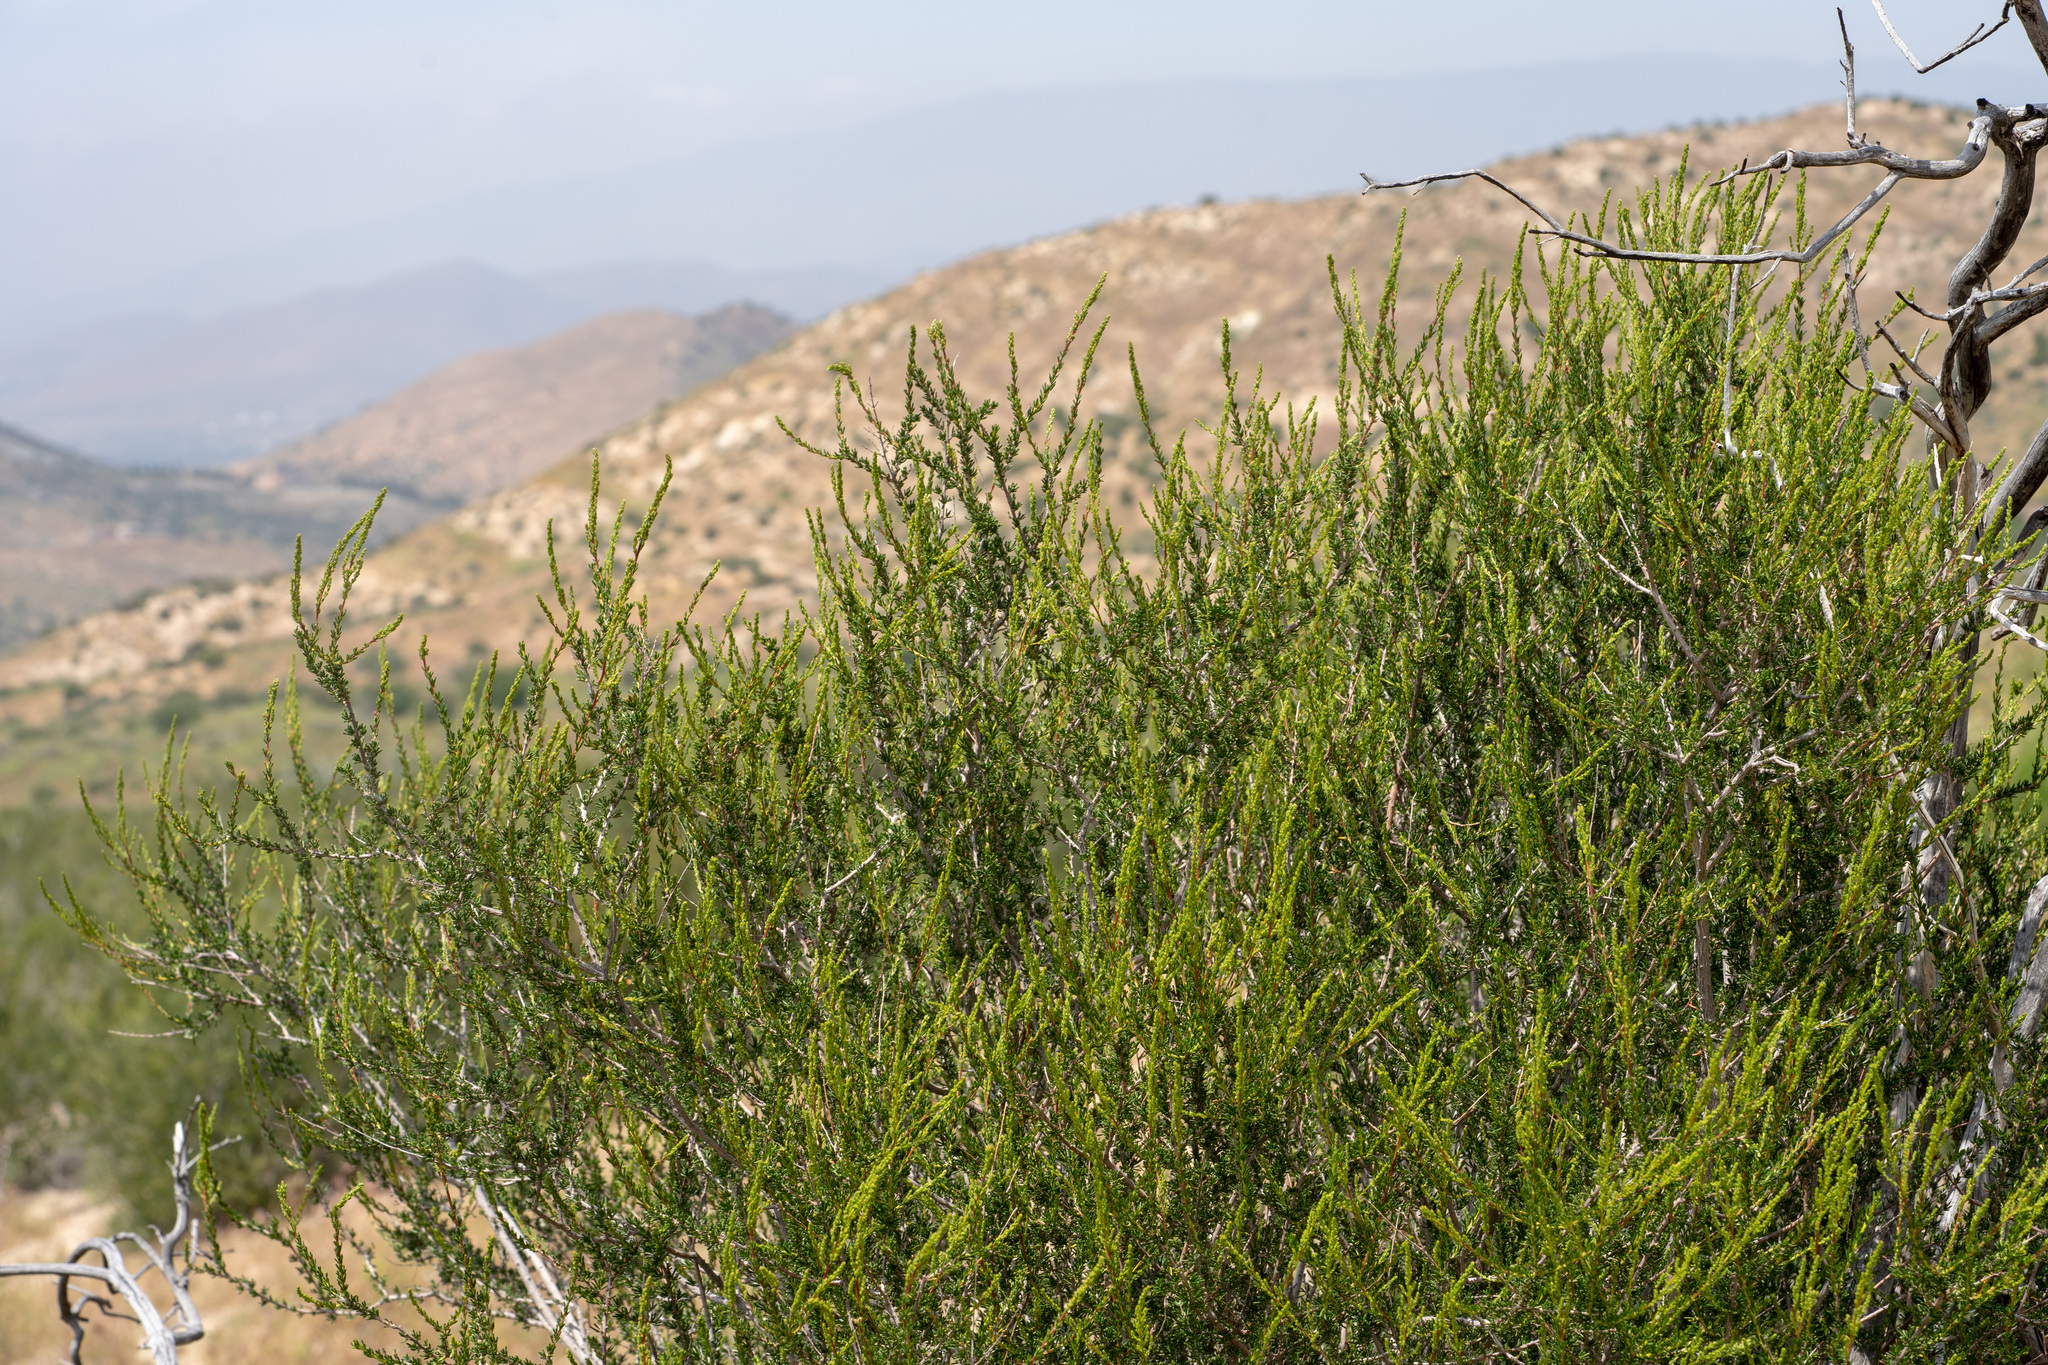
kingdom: Plantae
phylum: Tracheophyta
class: Magnoliopsida
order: Rosales
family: Rosaceae
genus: Adenostoma
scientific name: Adenostoma fasciculatum
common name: Chamise
